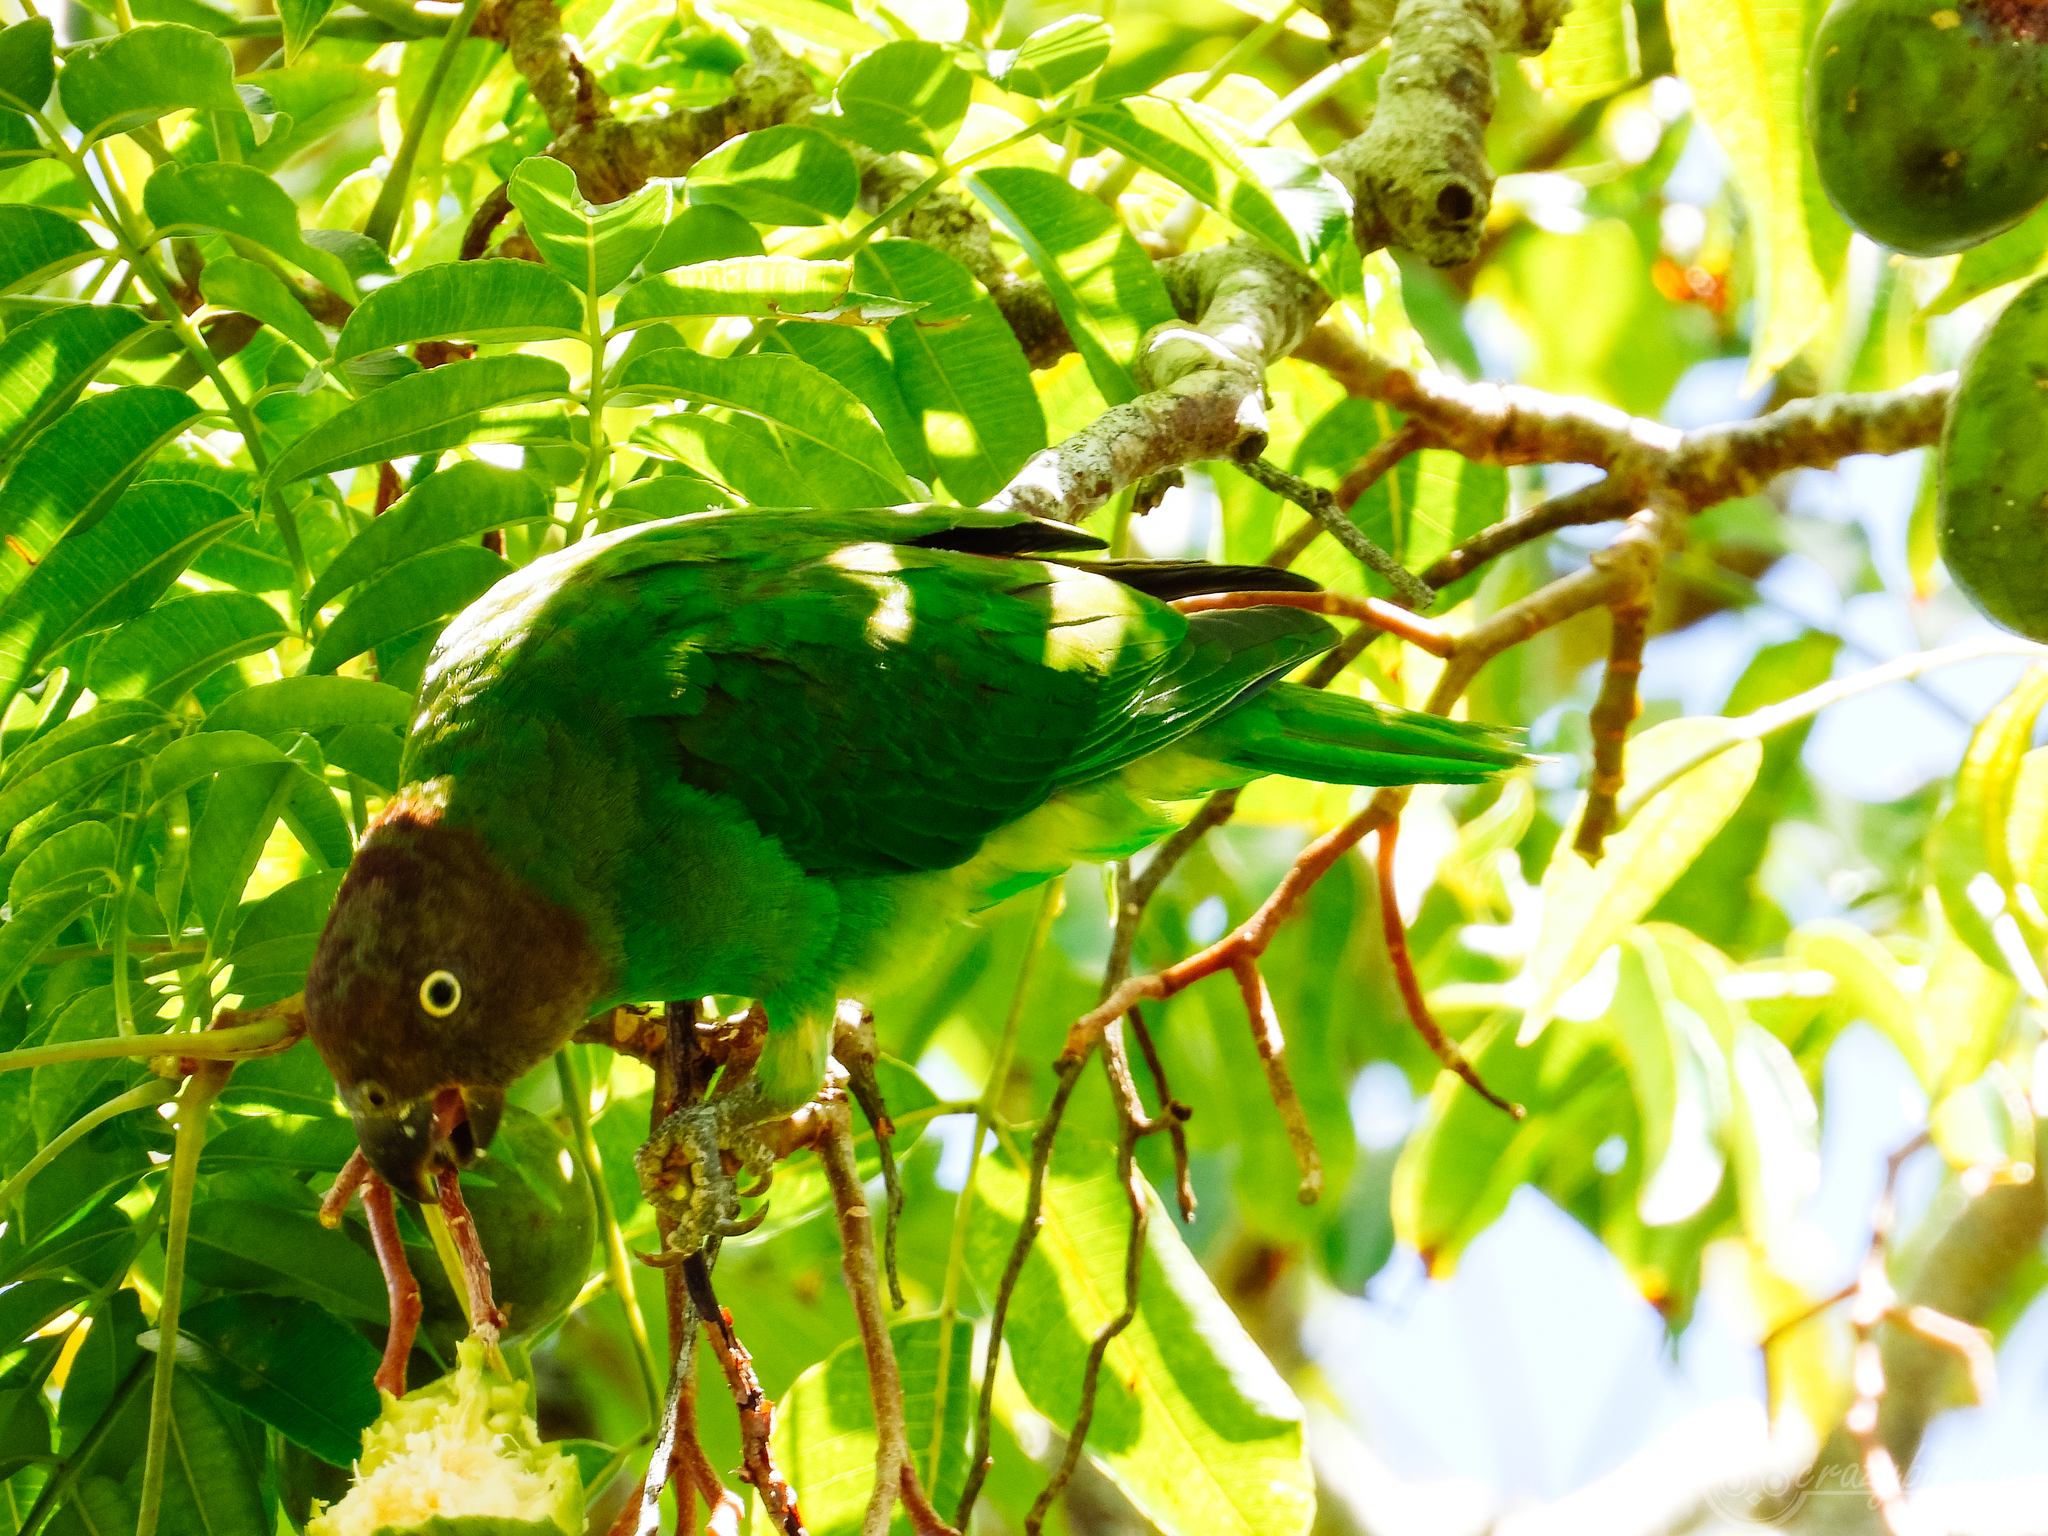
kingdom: Animalia
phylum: Chordata
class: Aves
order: Psittaciformes
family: Psittacidae
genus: Geoffroyus
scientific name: Geoffroyus geoffroyi
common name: Red-cheeked parrot
